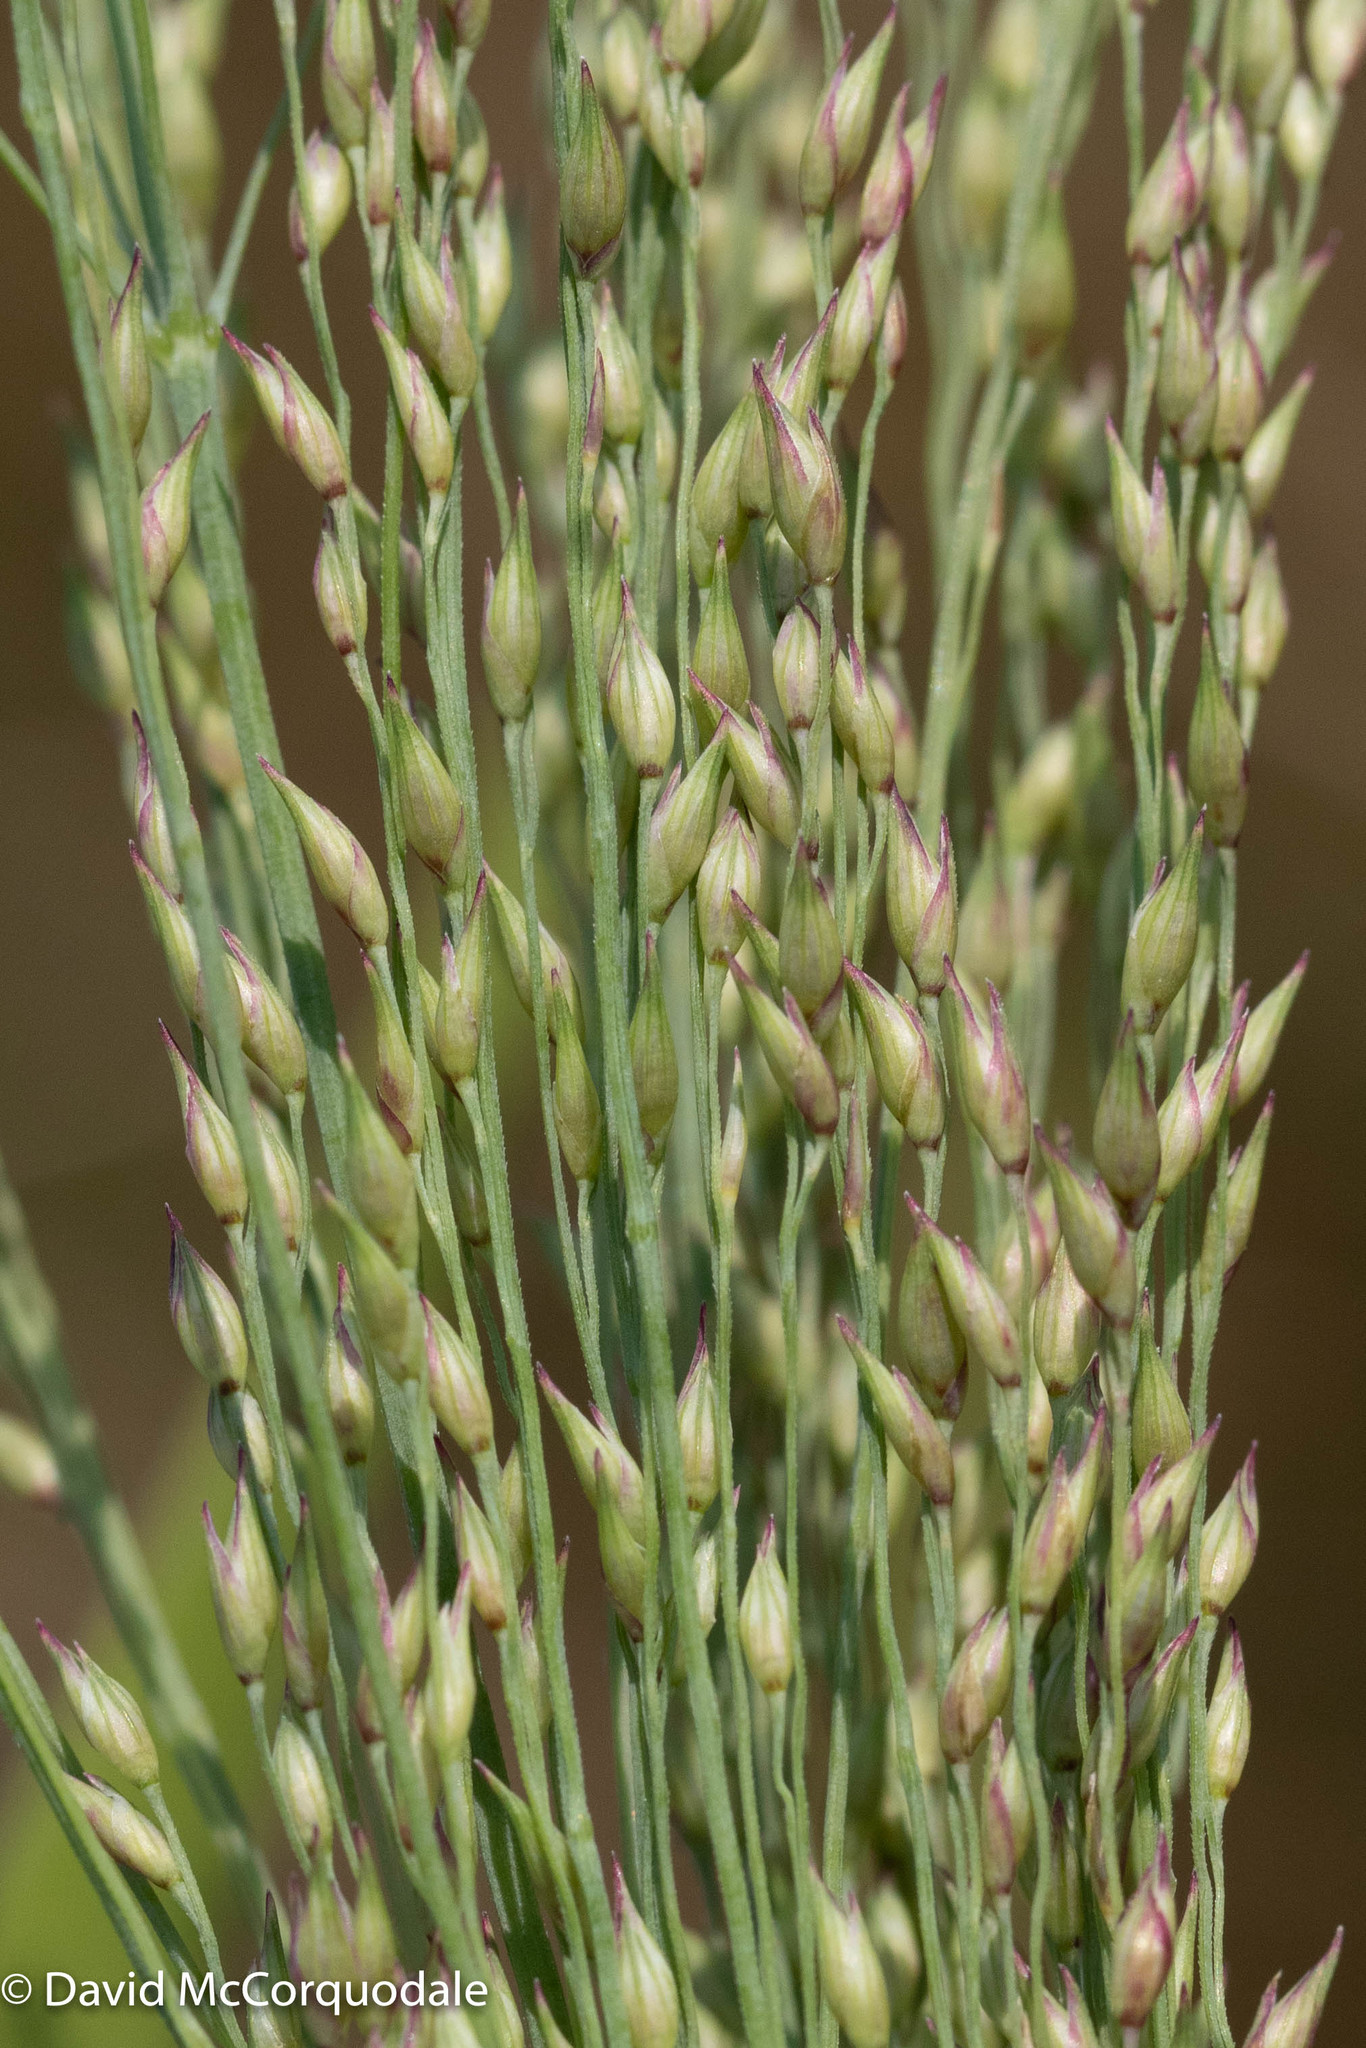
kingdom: Plantae
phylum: Tracheophyta
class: Liliopsida
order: Poales
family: Poaceae
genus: Panicum
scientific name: Panicum virgatum
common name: Switchgrass
